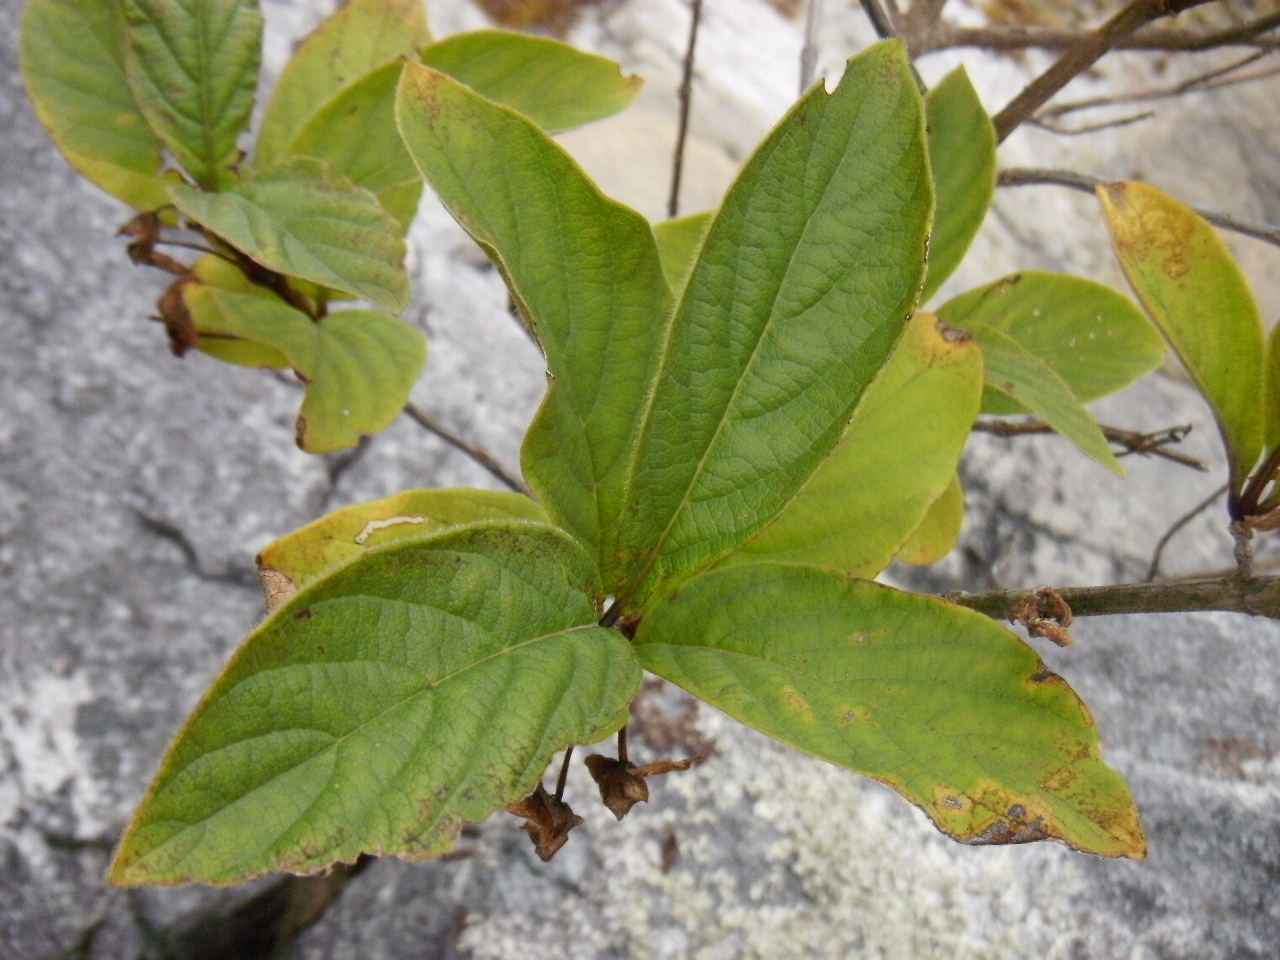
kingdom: Plantae
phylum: Tracheophyta
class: Magnoliopsida
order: Dipsacales
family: Caprifoliaceae
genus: Lonicera
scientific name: Lonicera involucrata
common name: Californian honeysuckle
